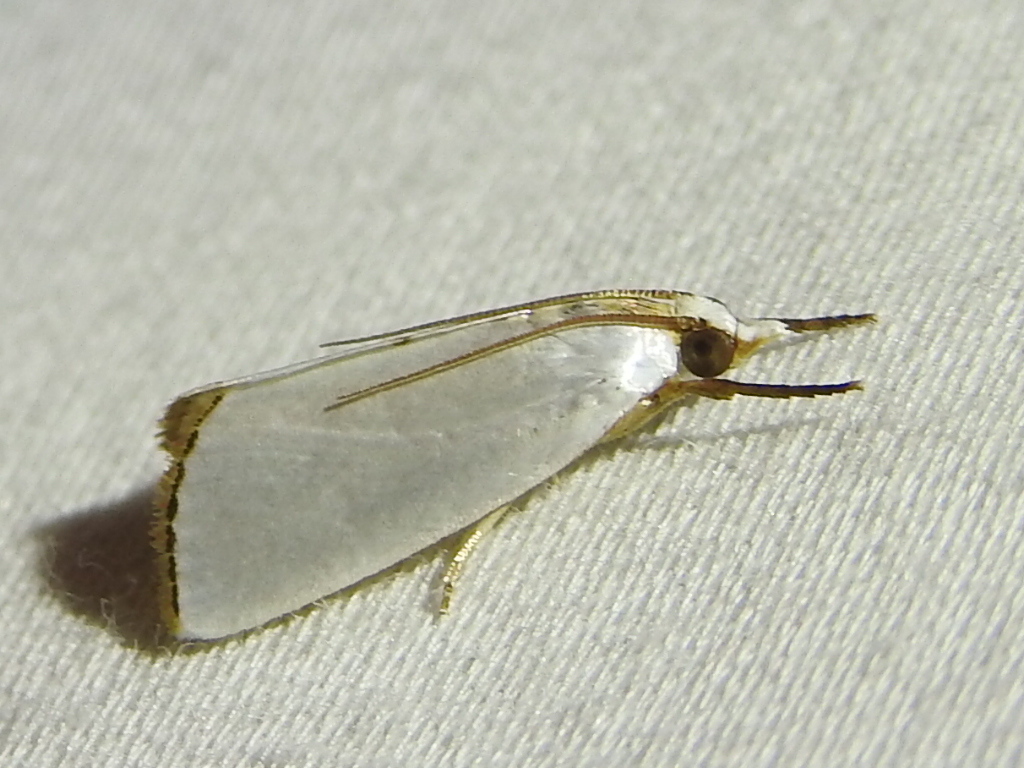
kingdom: Animalia
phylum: Arthropoda
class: Insecta
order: Lepidoptera
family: Crambidae
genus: Argyria
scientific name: Argyria nivalis
